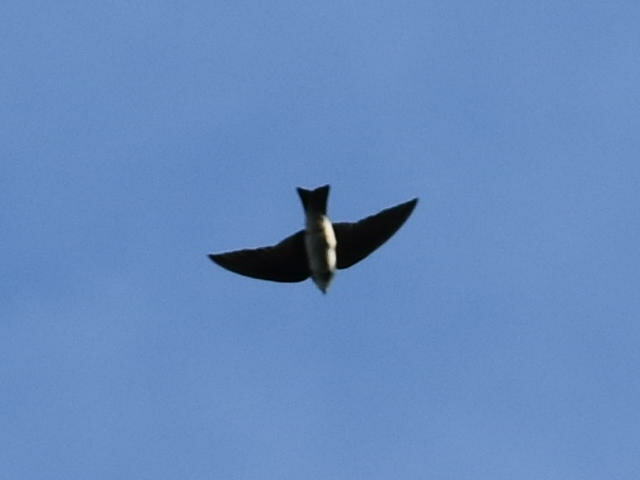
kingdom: Animalia
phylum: Chordata
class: Aves
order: Passeriformes
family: Hirundinidae
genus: Tachycineta
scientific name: Tachycineta bicolor
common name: Tree swallow
